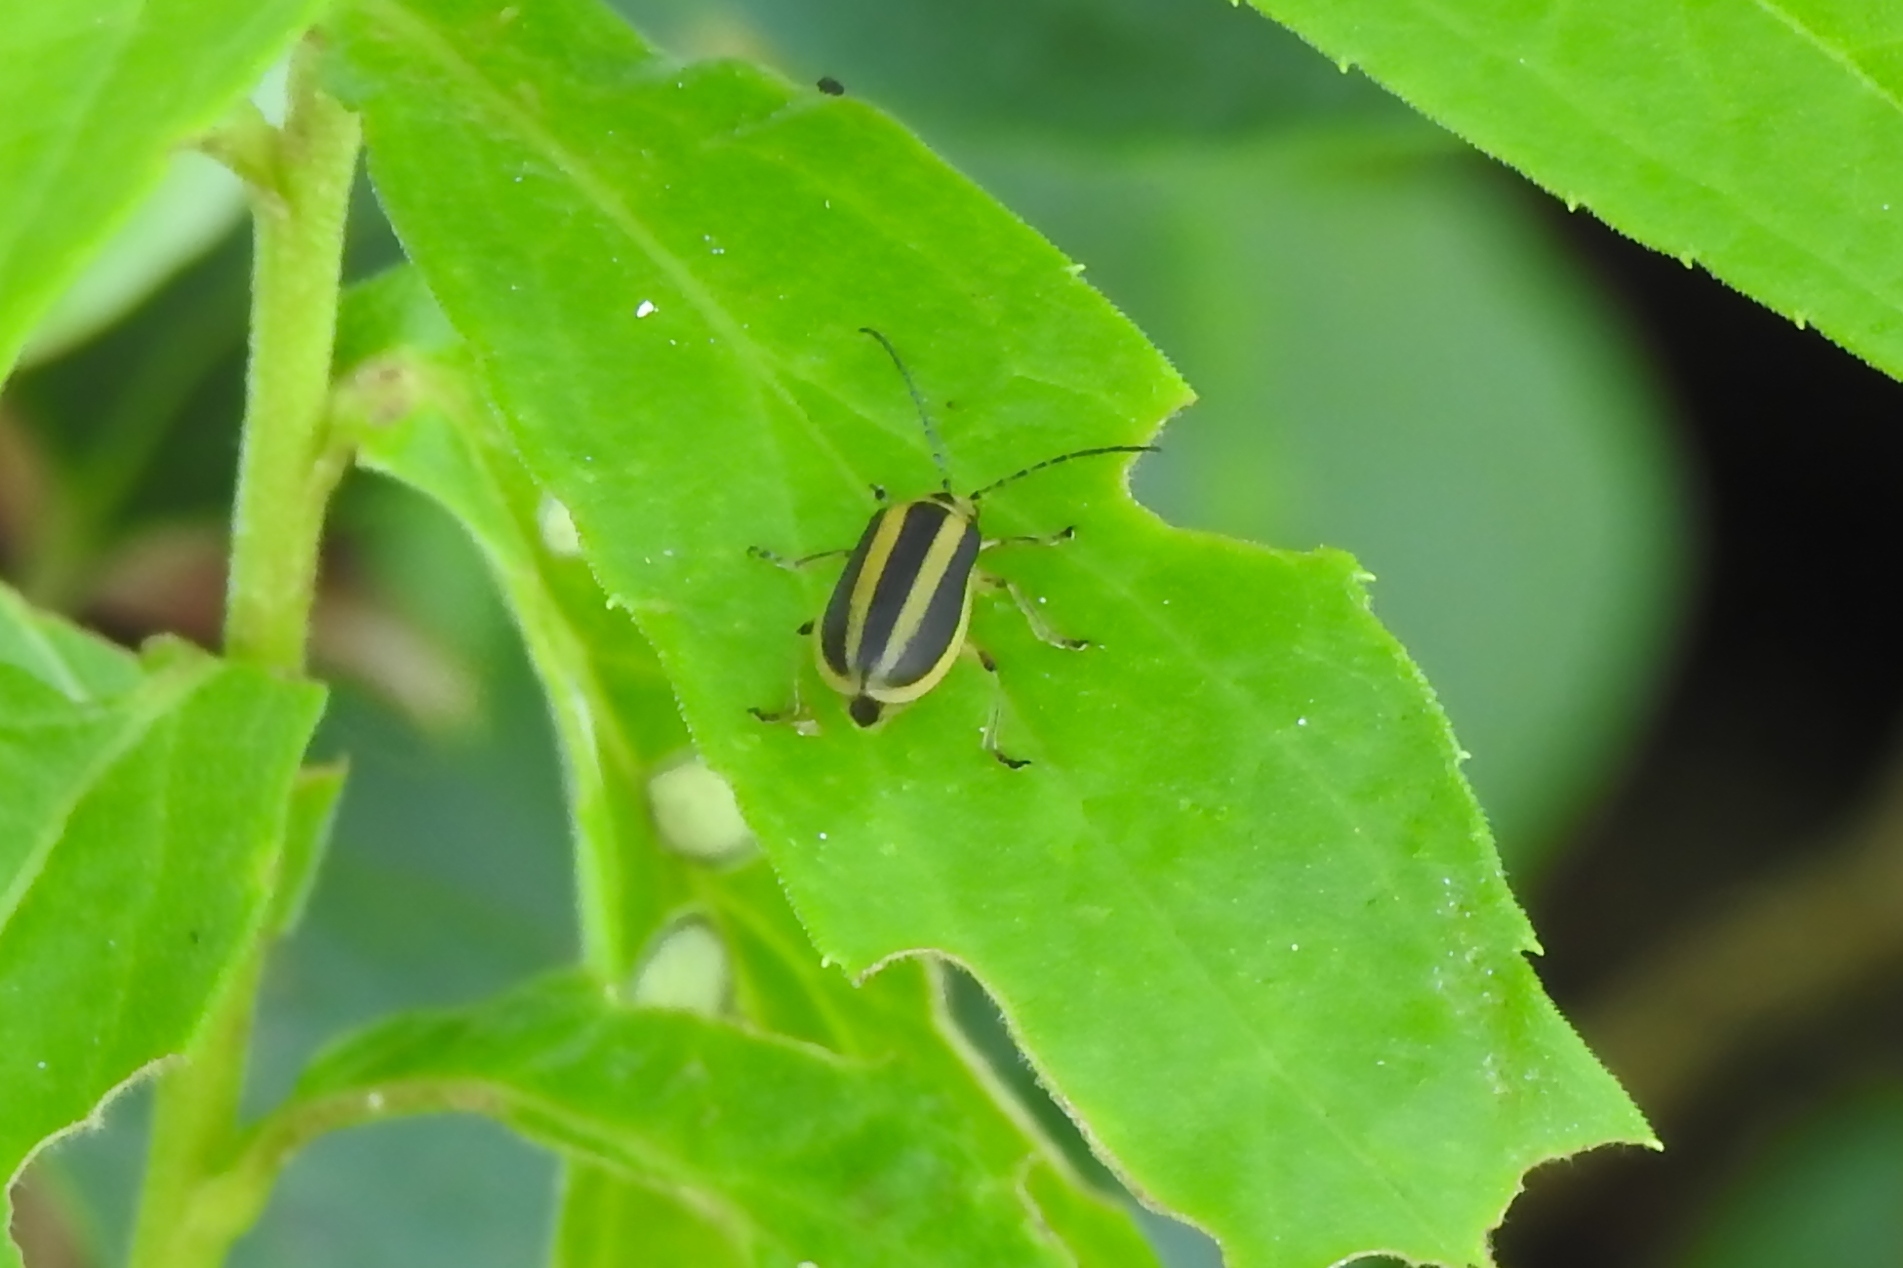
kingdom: Animalia
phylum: Arthropoda
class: Insecta
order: Coleoptera
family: Chrysomelidae
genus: Trirhabda
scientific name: Trirhabda
